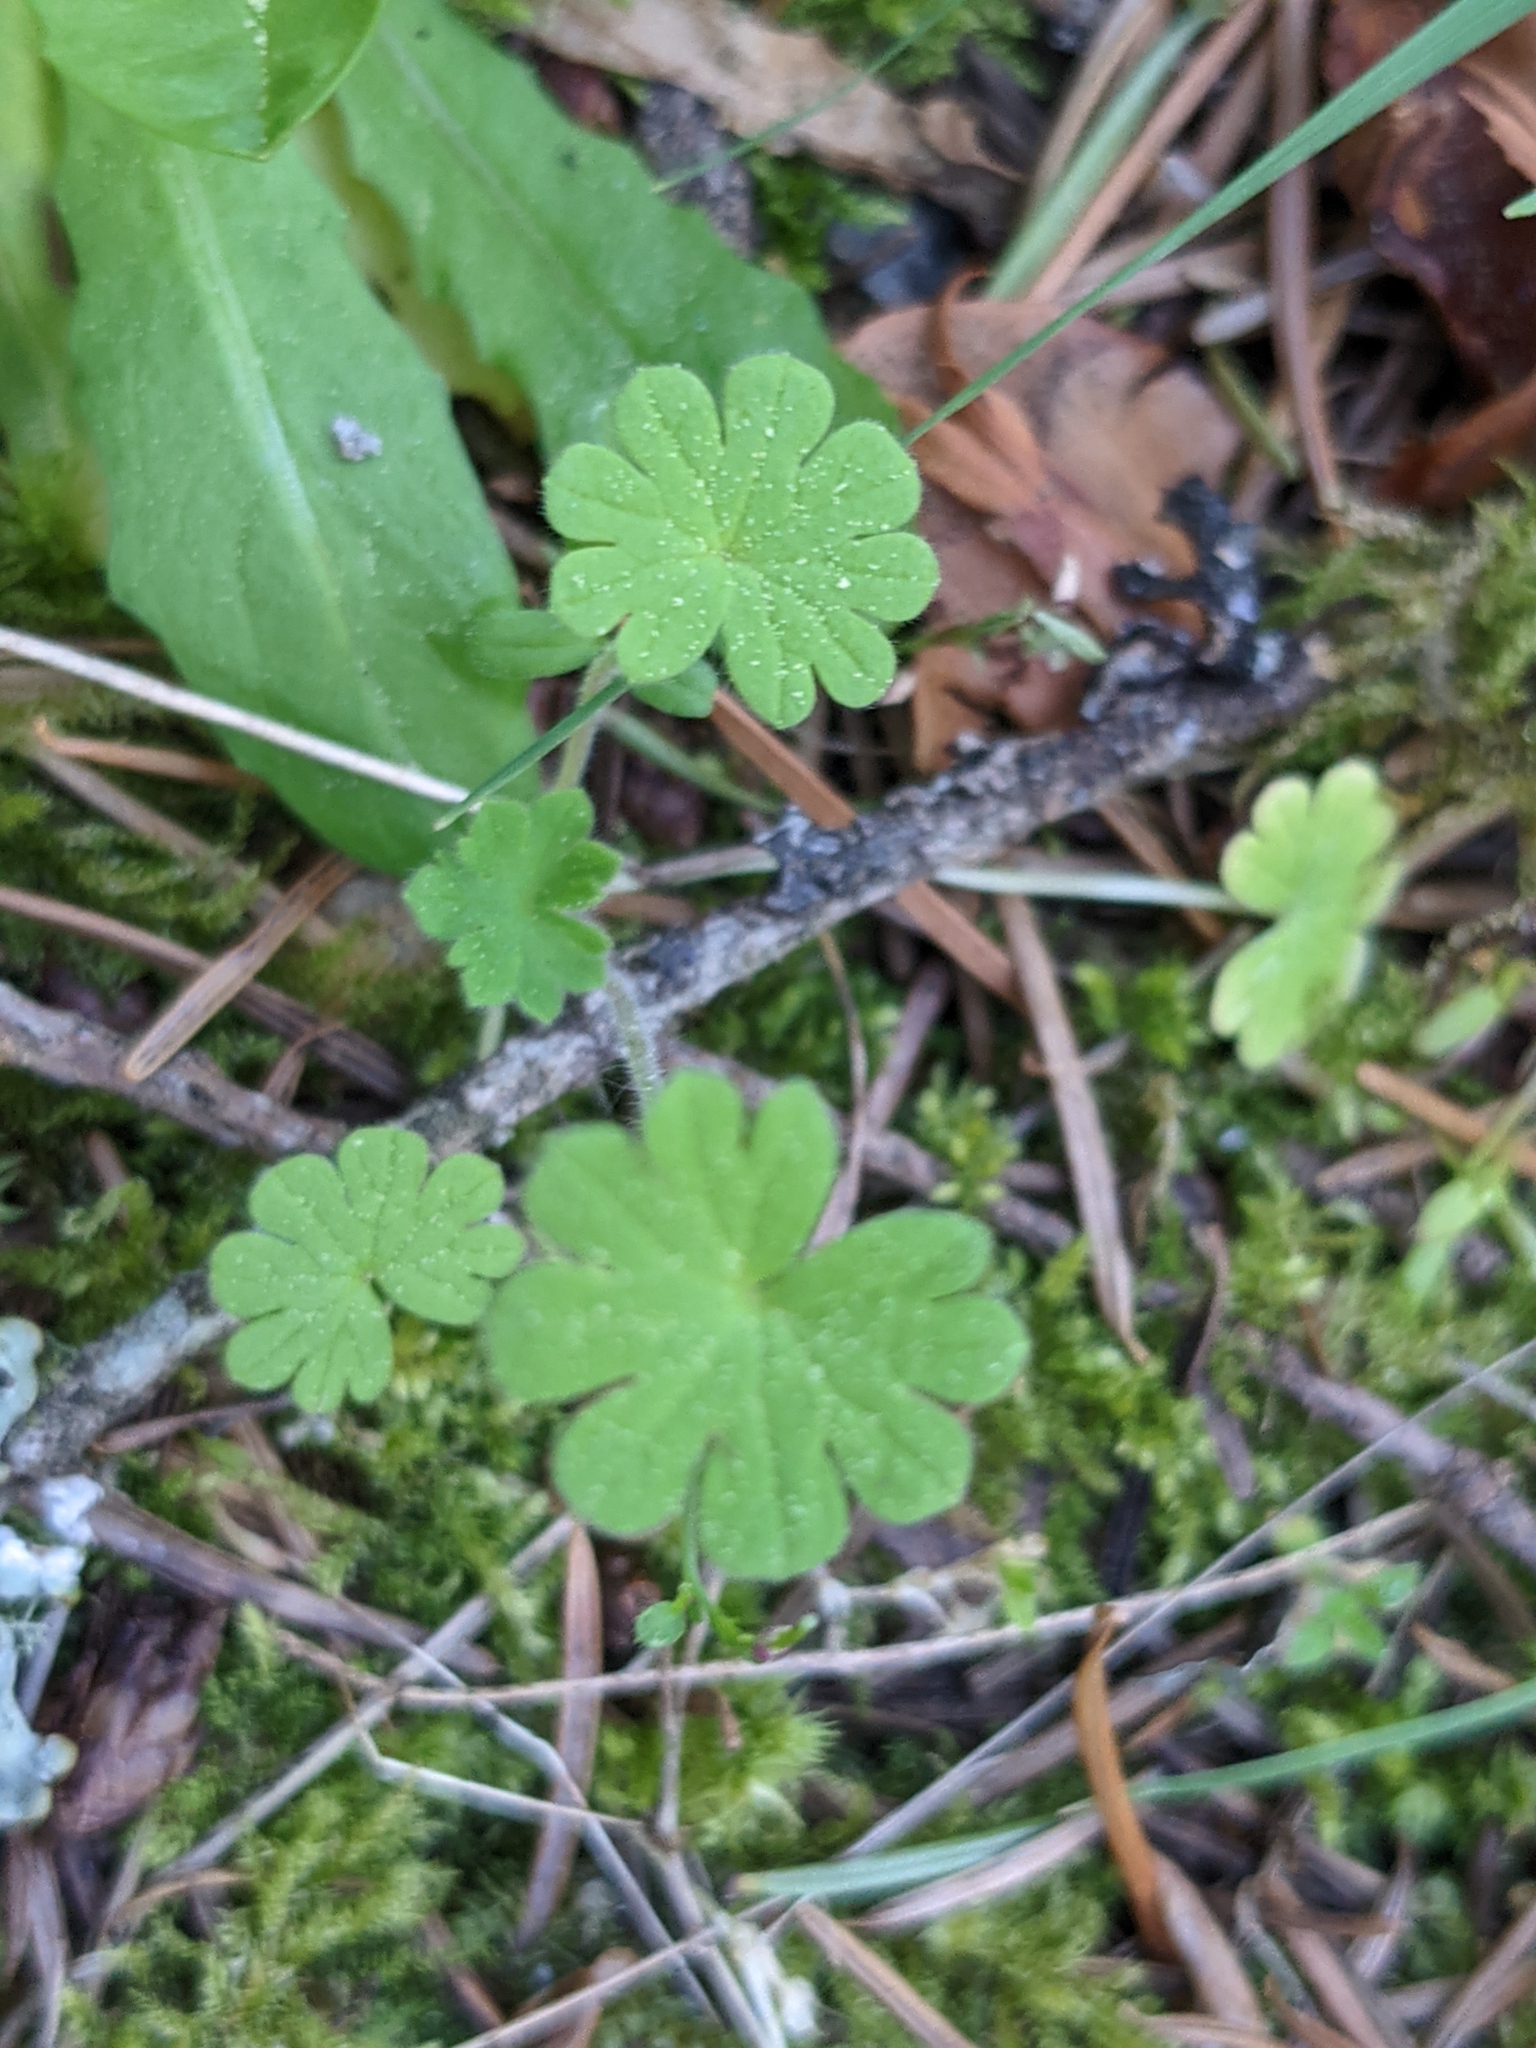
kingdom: Plantae
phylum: Tracheophyta
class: Magnoliopsida
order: Geraniales
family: Geraniaceae
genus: Geranium
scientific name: Geranium molle
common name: Dove's-foot crane's-bill
